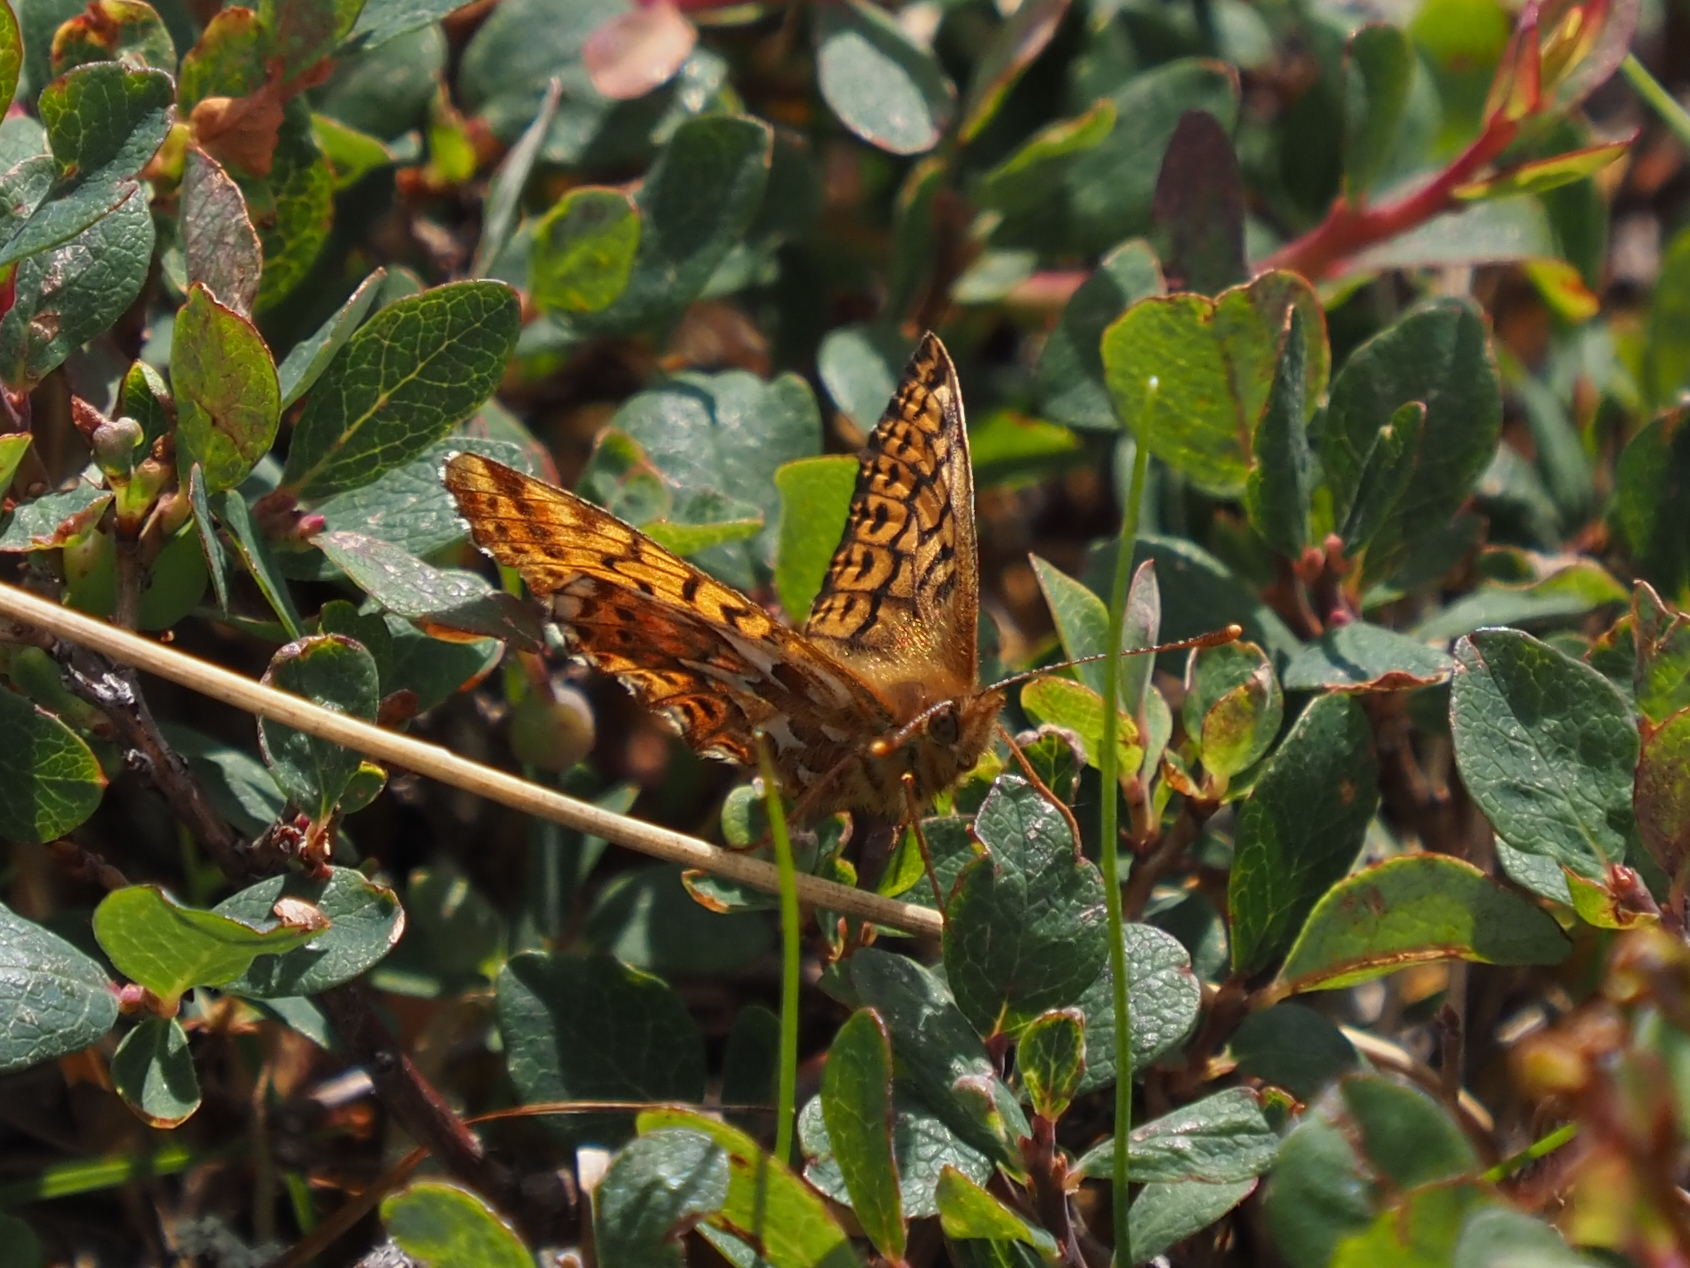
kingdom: Animalia
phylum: Arthropoda
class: Insecta
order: Lepidoptera
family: Nymphalidae
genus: Boloria
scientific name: Boloria freija
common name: Freija fritillary
